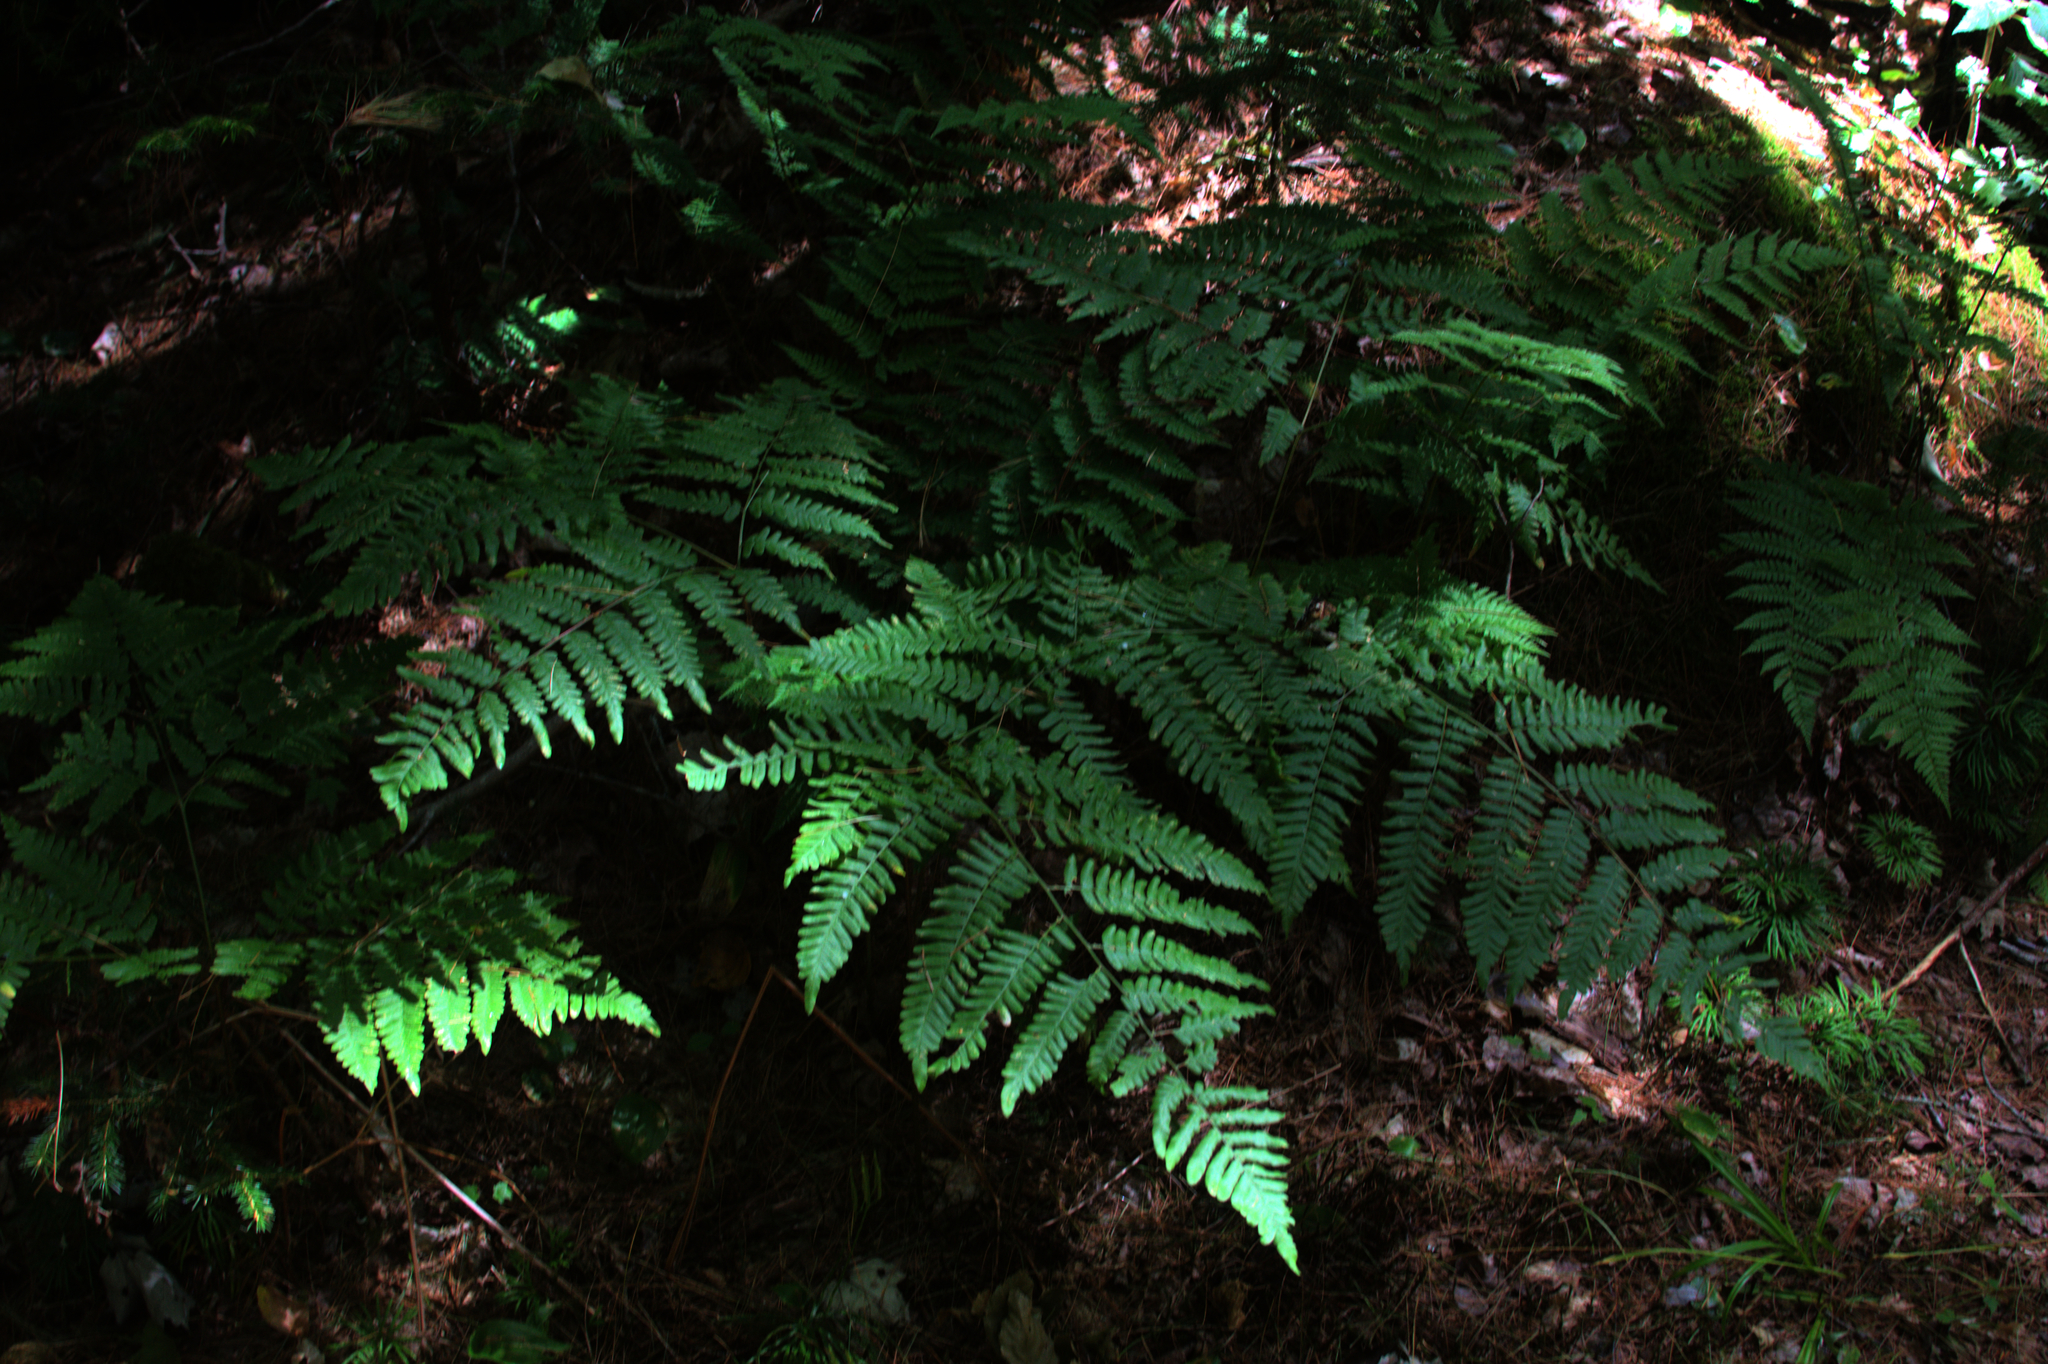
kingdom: Plantae
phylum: Tracheophyta
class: Polypodiopsida
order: Polypodiales
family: Dennstaedtiaceae
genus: Pteridium
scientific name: Pteridium aquilinum
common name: Bracken
